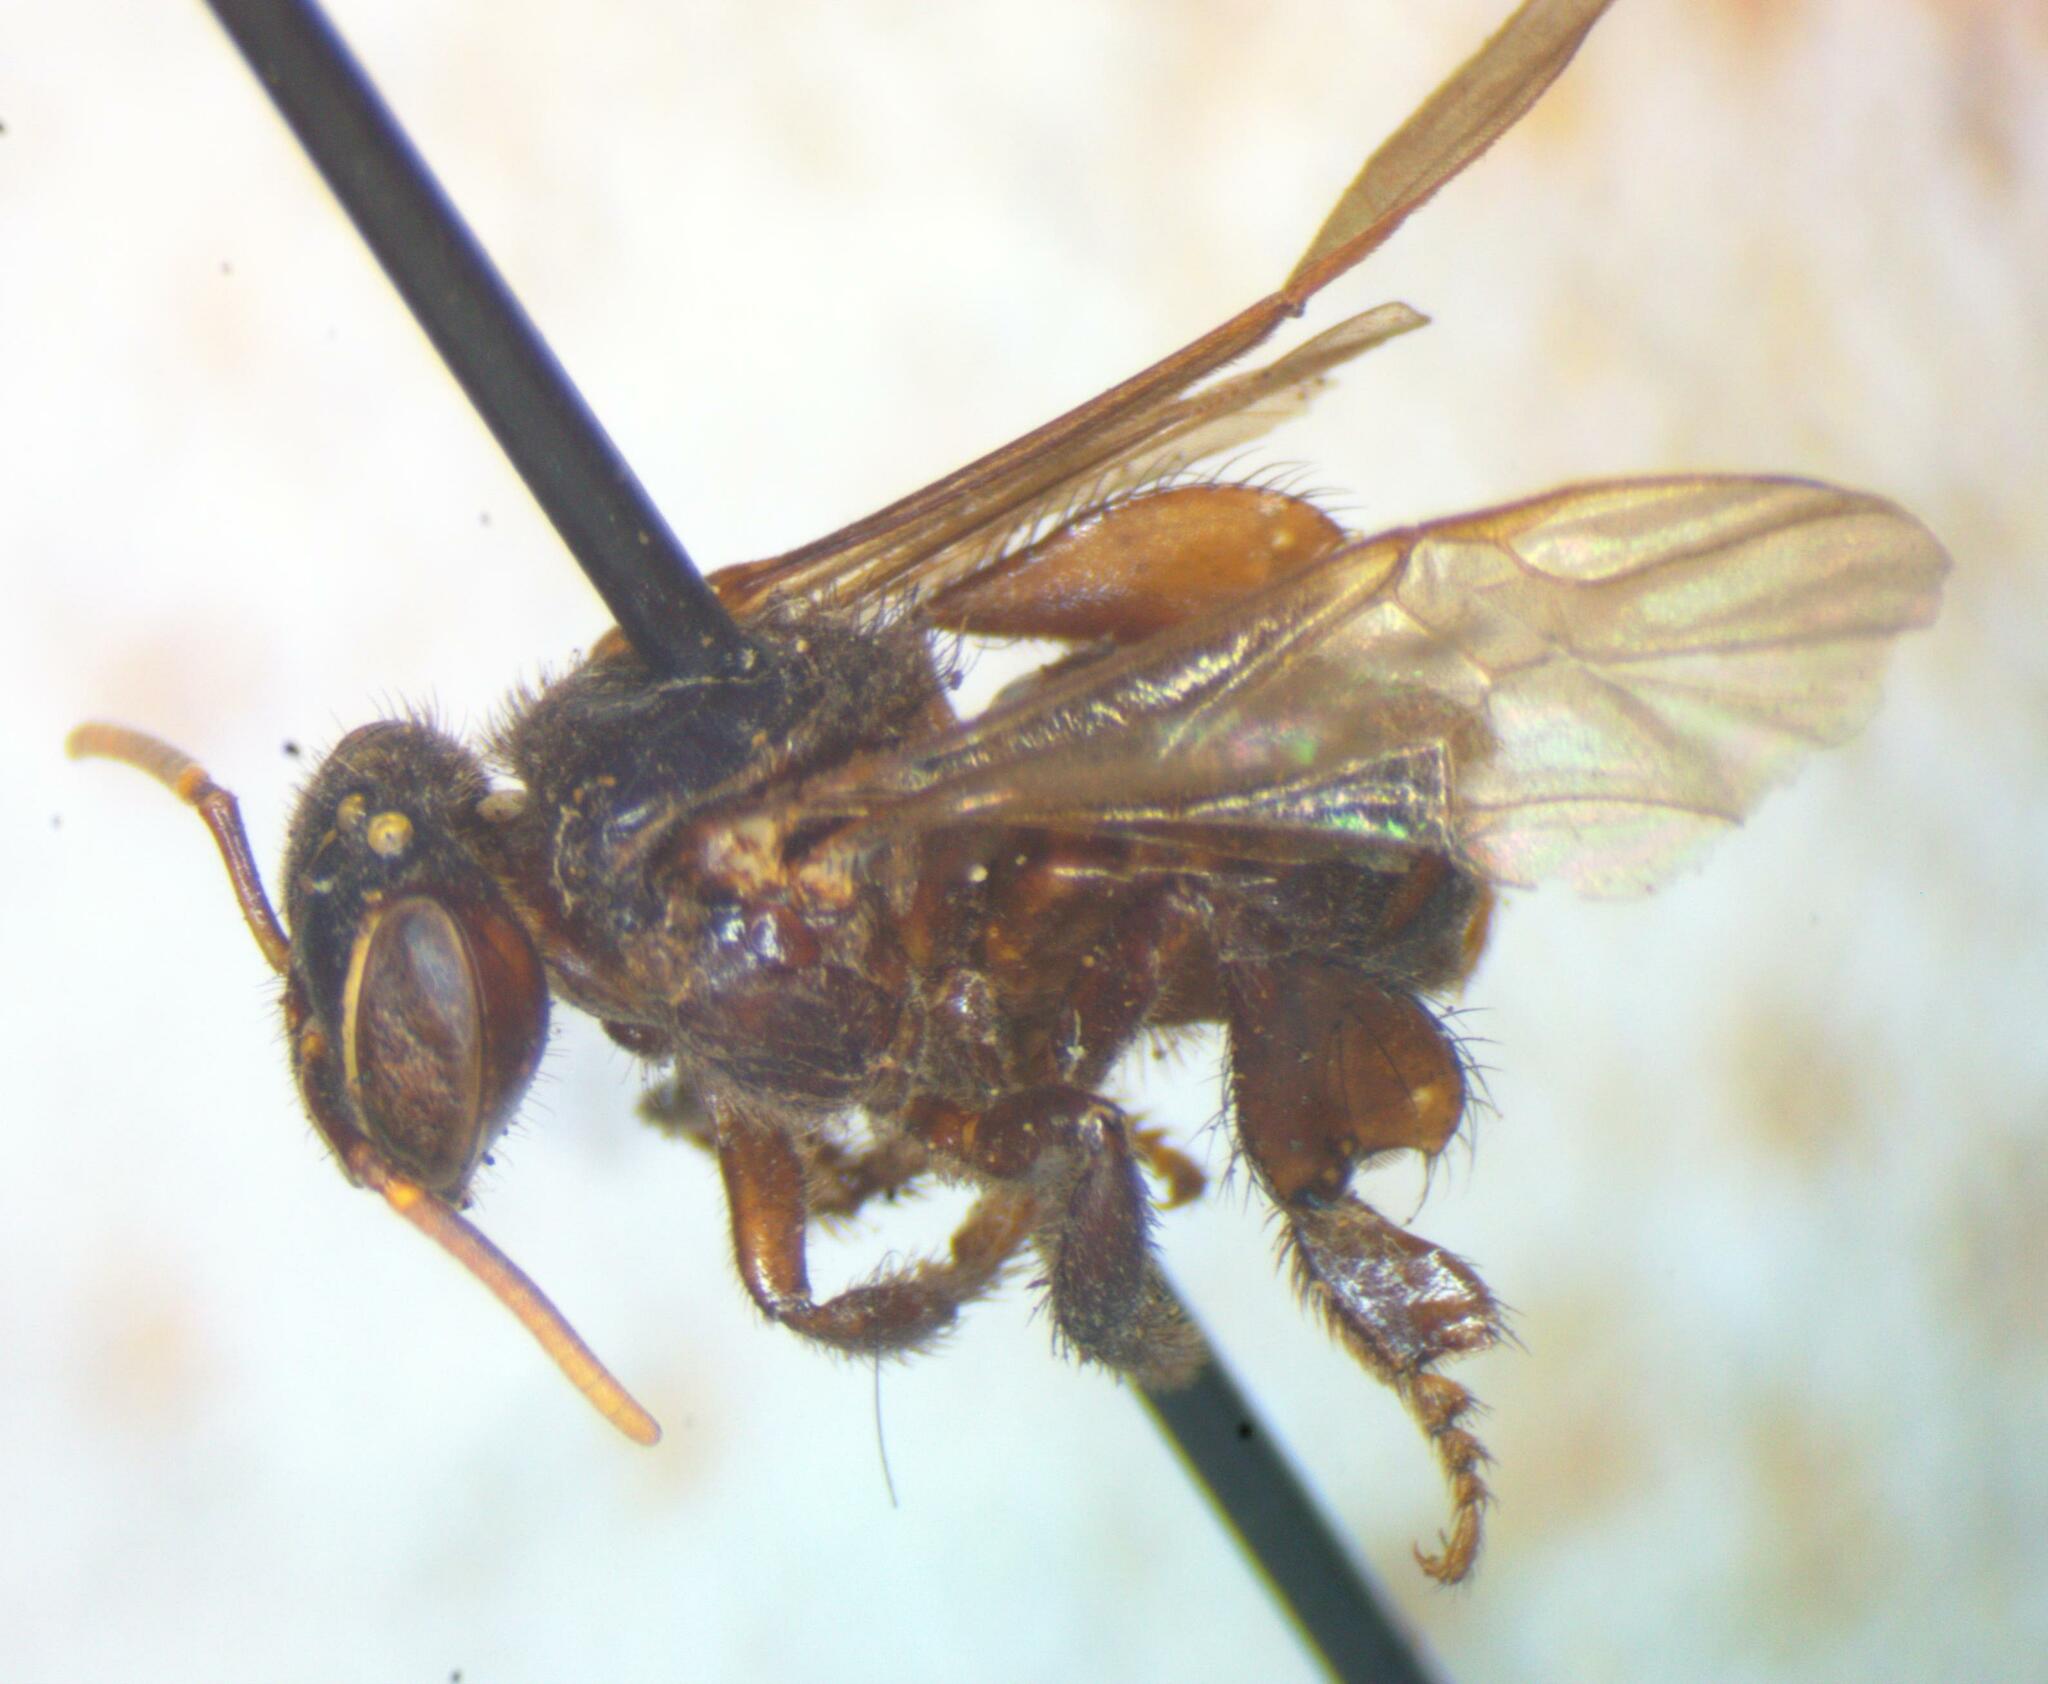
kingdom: Animalia
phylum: Arthropoda
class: Insecta
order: Hymenoptera
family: Apidae
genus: Partamona
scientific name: Partamona cupira
